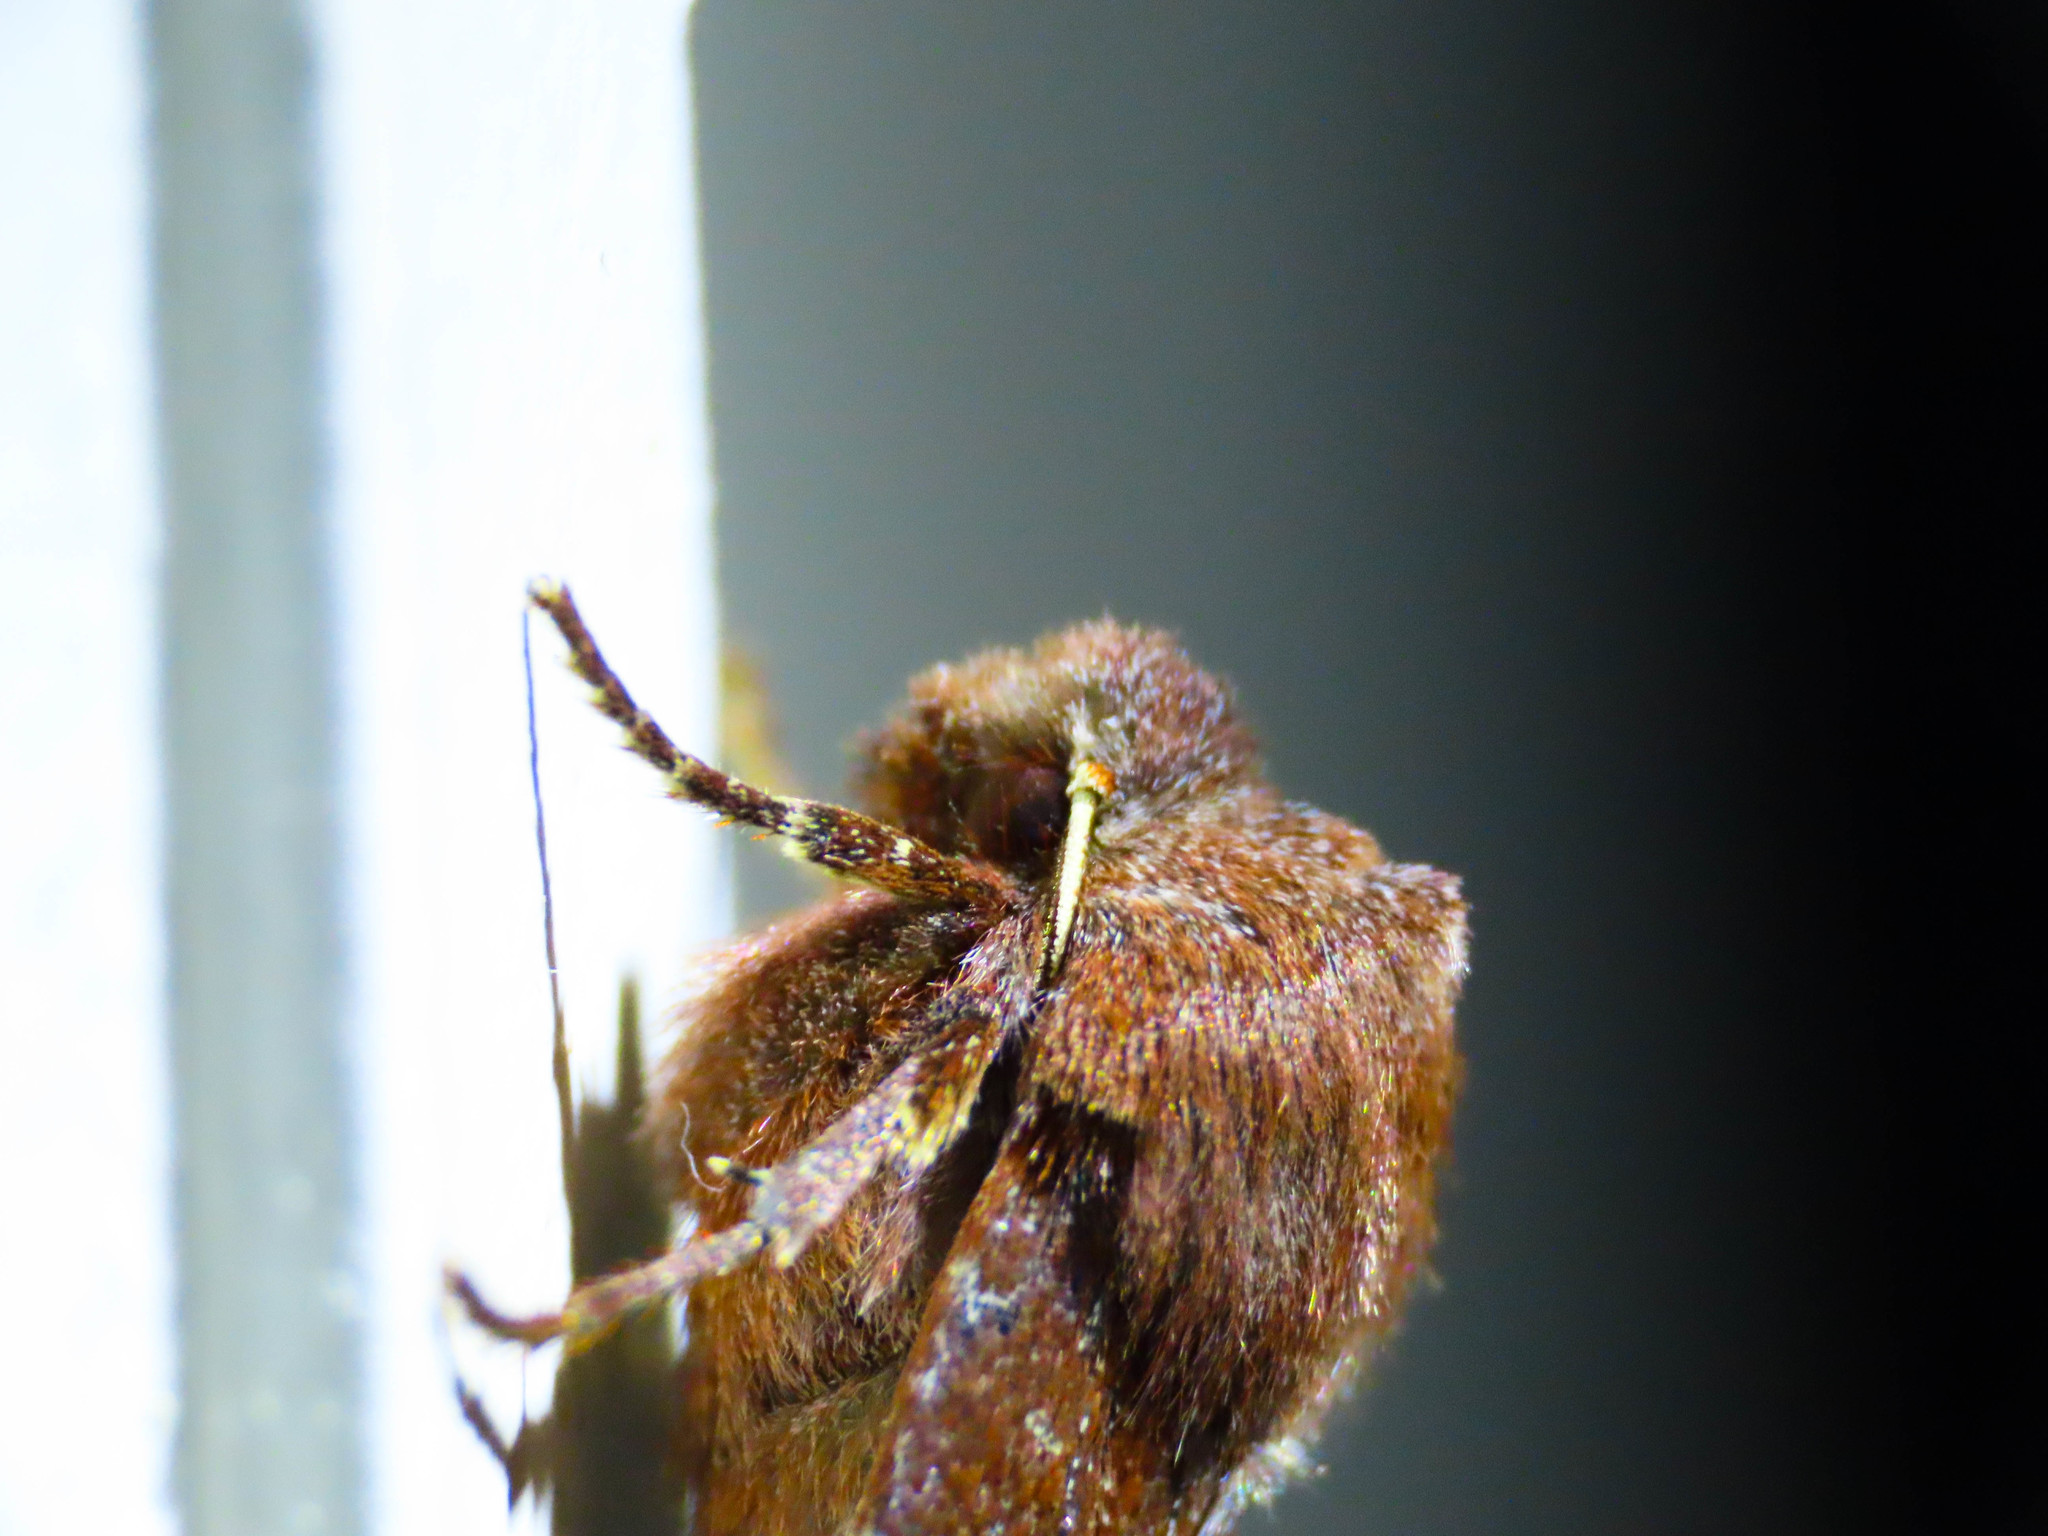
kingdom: Animalia
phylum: Arthropoda
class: Insecta
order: Lepidoptera
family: Noctuidae
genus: Conistra
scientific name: Conistra vaccinii
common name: Chestnut
